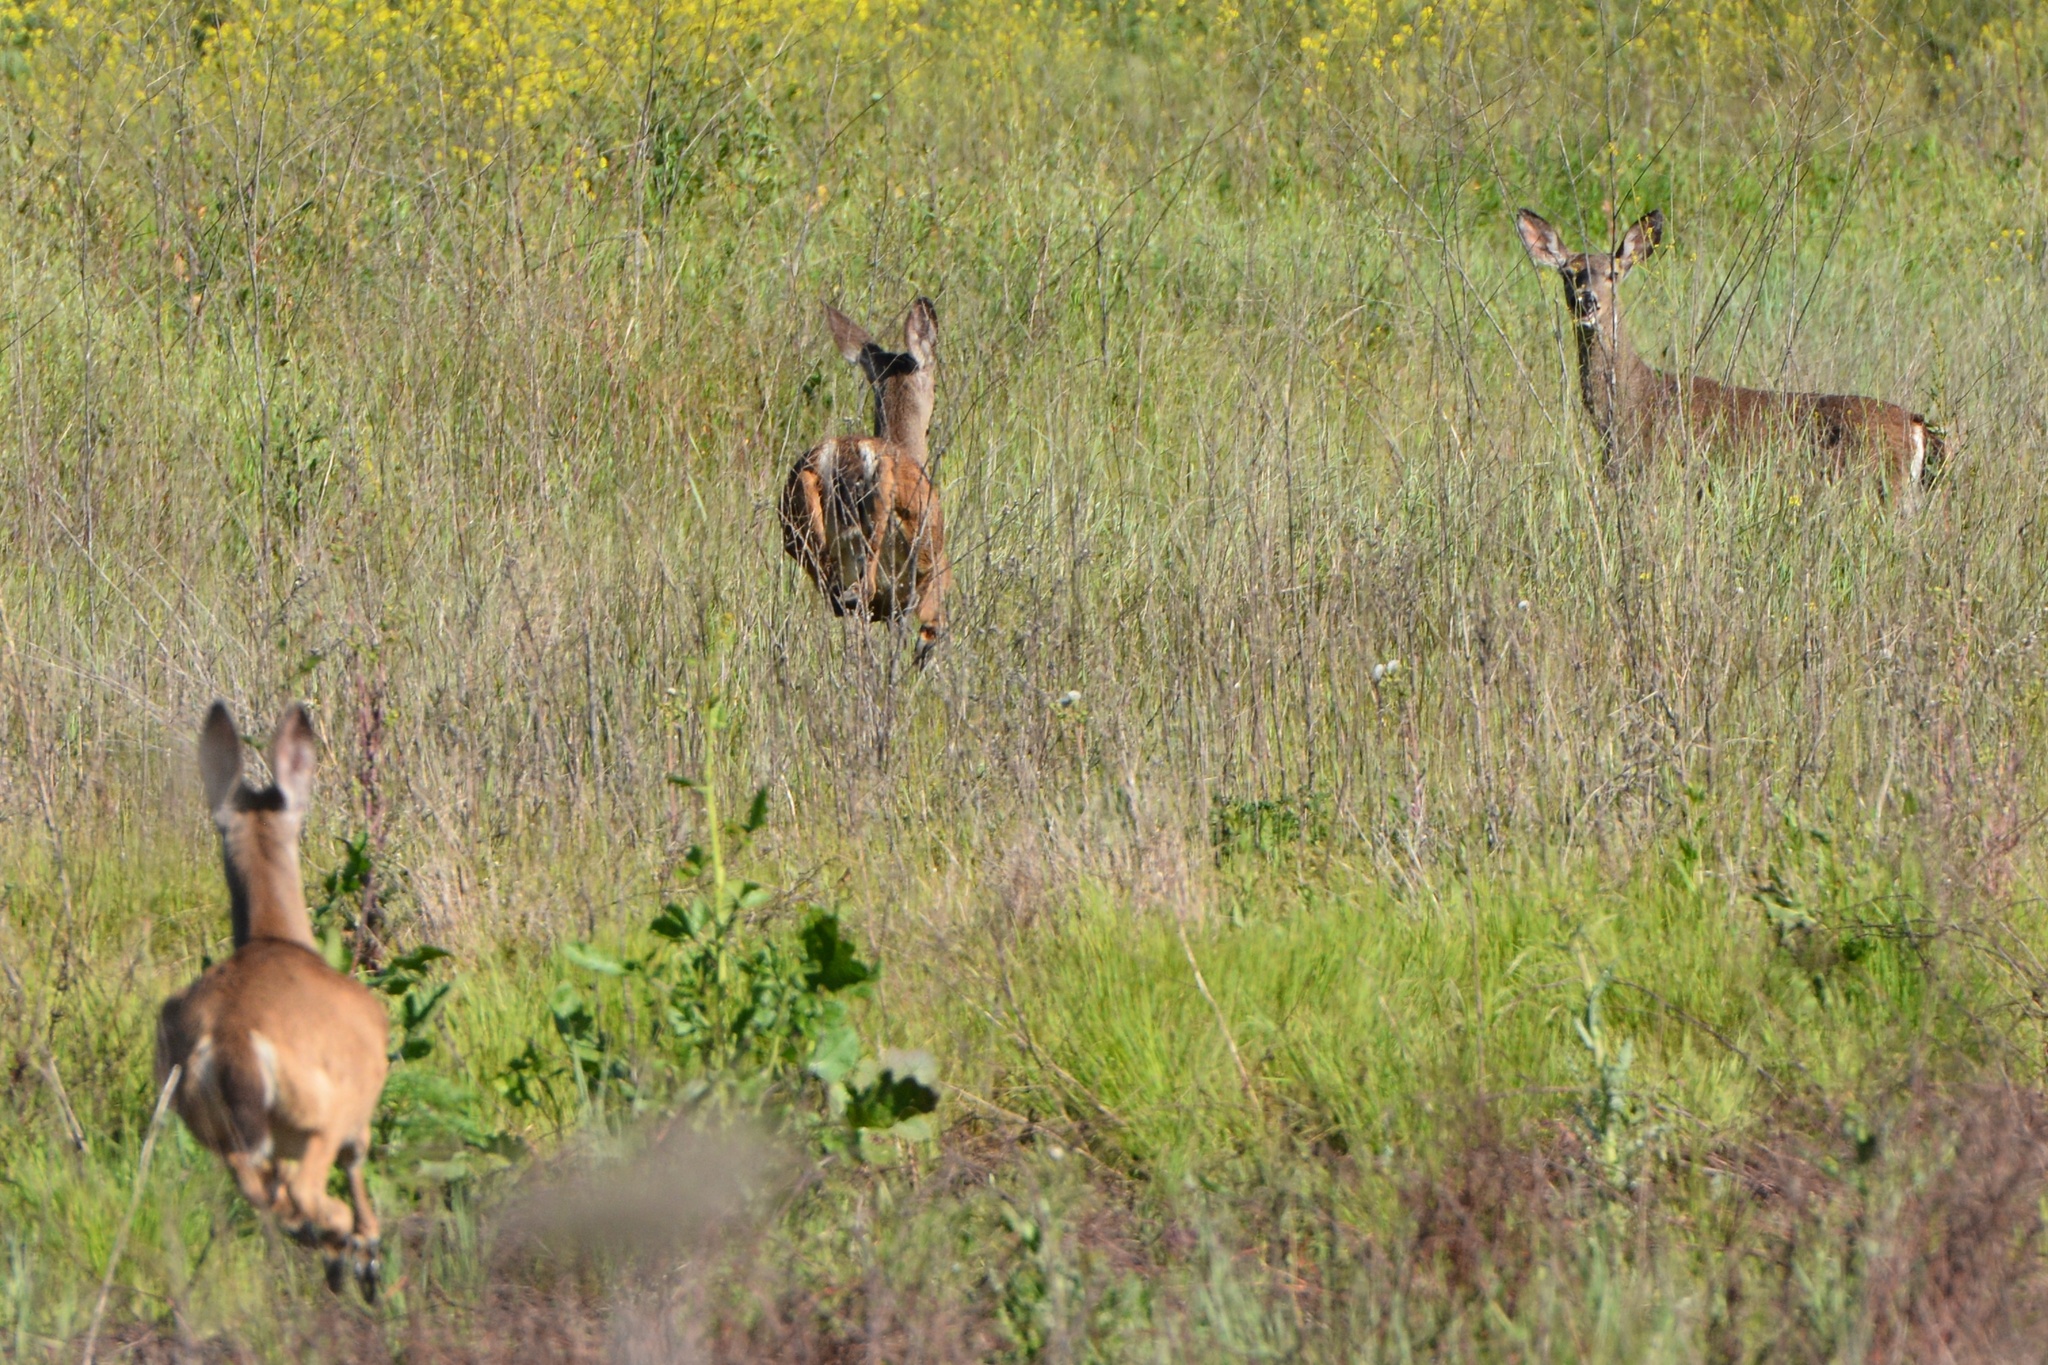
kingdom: Animalia
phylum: Chordata
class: Mammalia
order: Artiodactyla
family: Cervidae
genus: Odocoileus
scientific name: Odocoileus hemionus
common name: Mule deer
